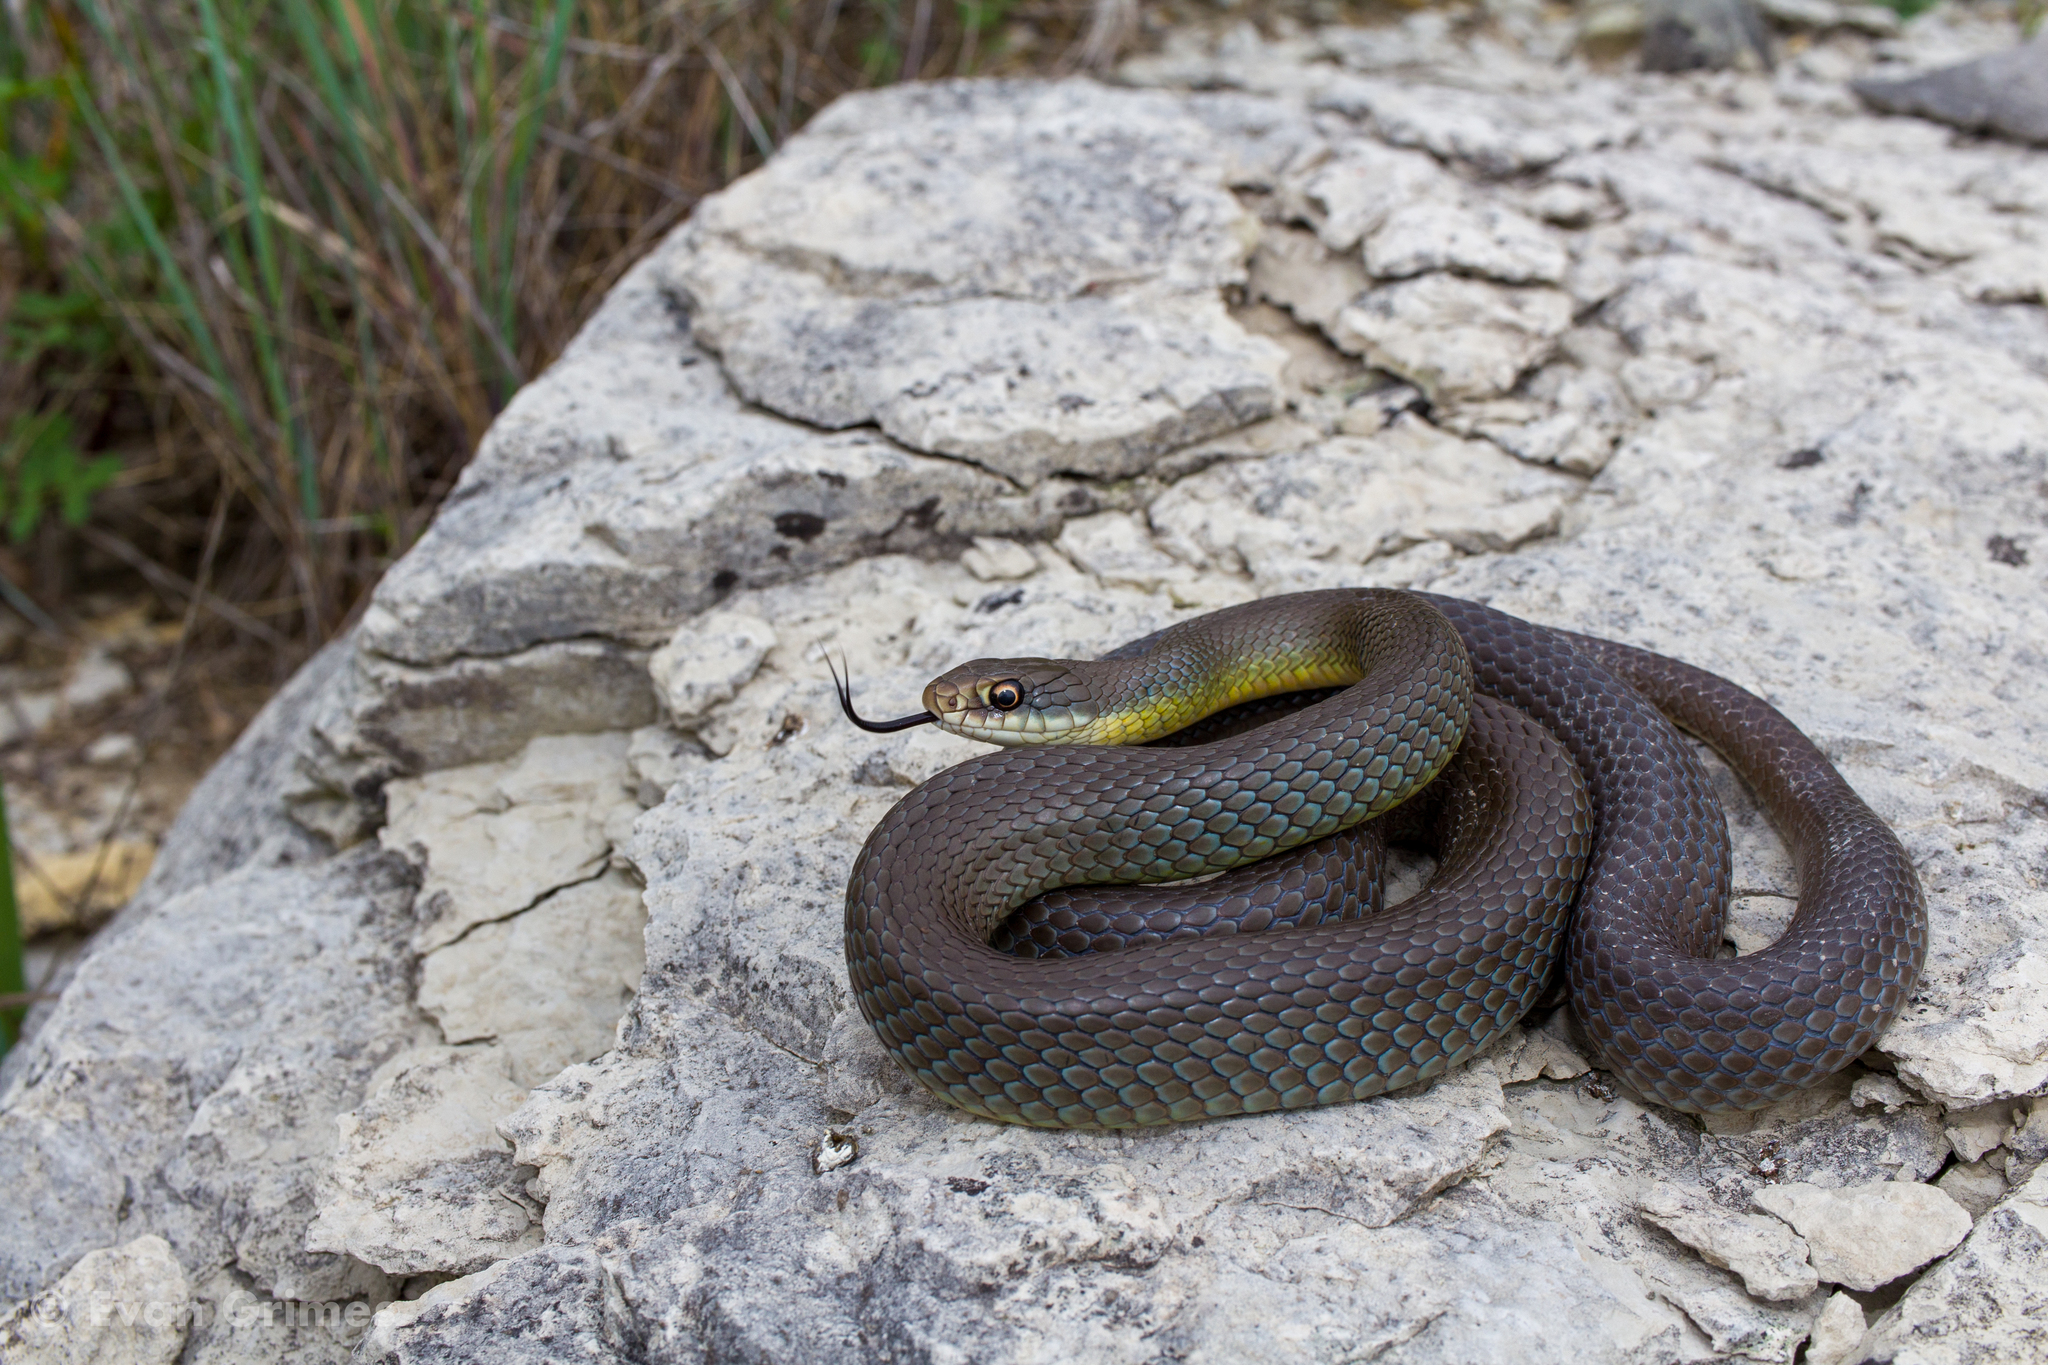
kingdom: Animalia
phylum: Chordata
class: Squamata
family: Colubridae
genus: Coluber
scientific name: Coluber constrictor
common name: Eastern racer
